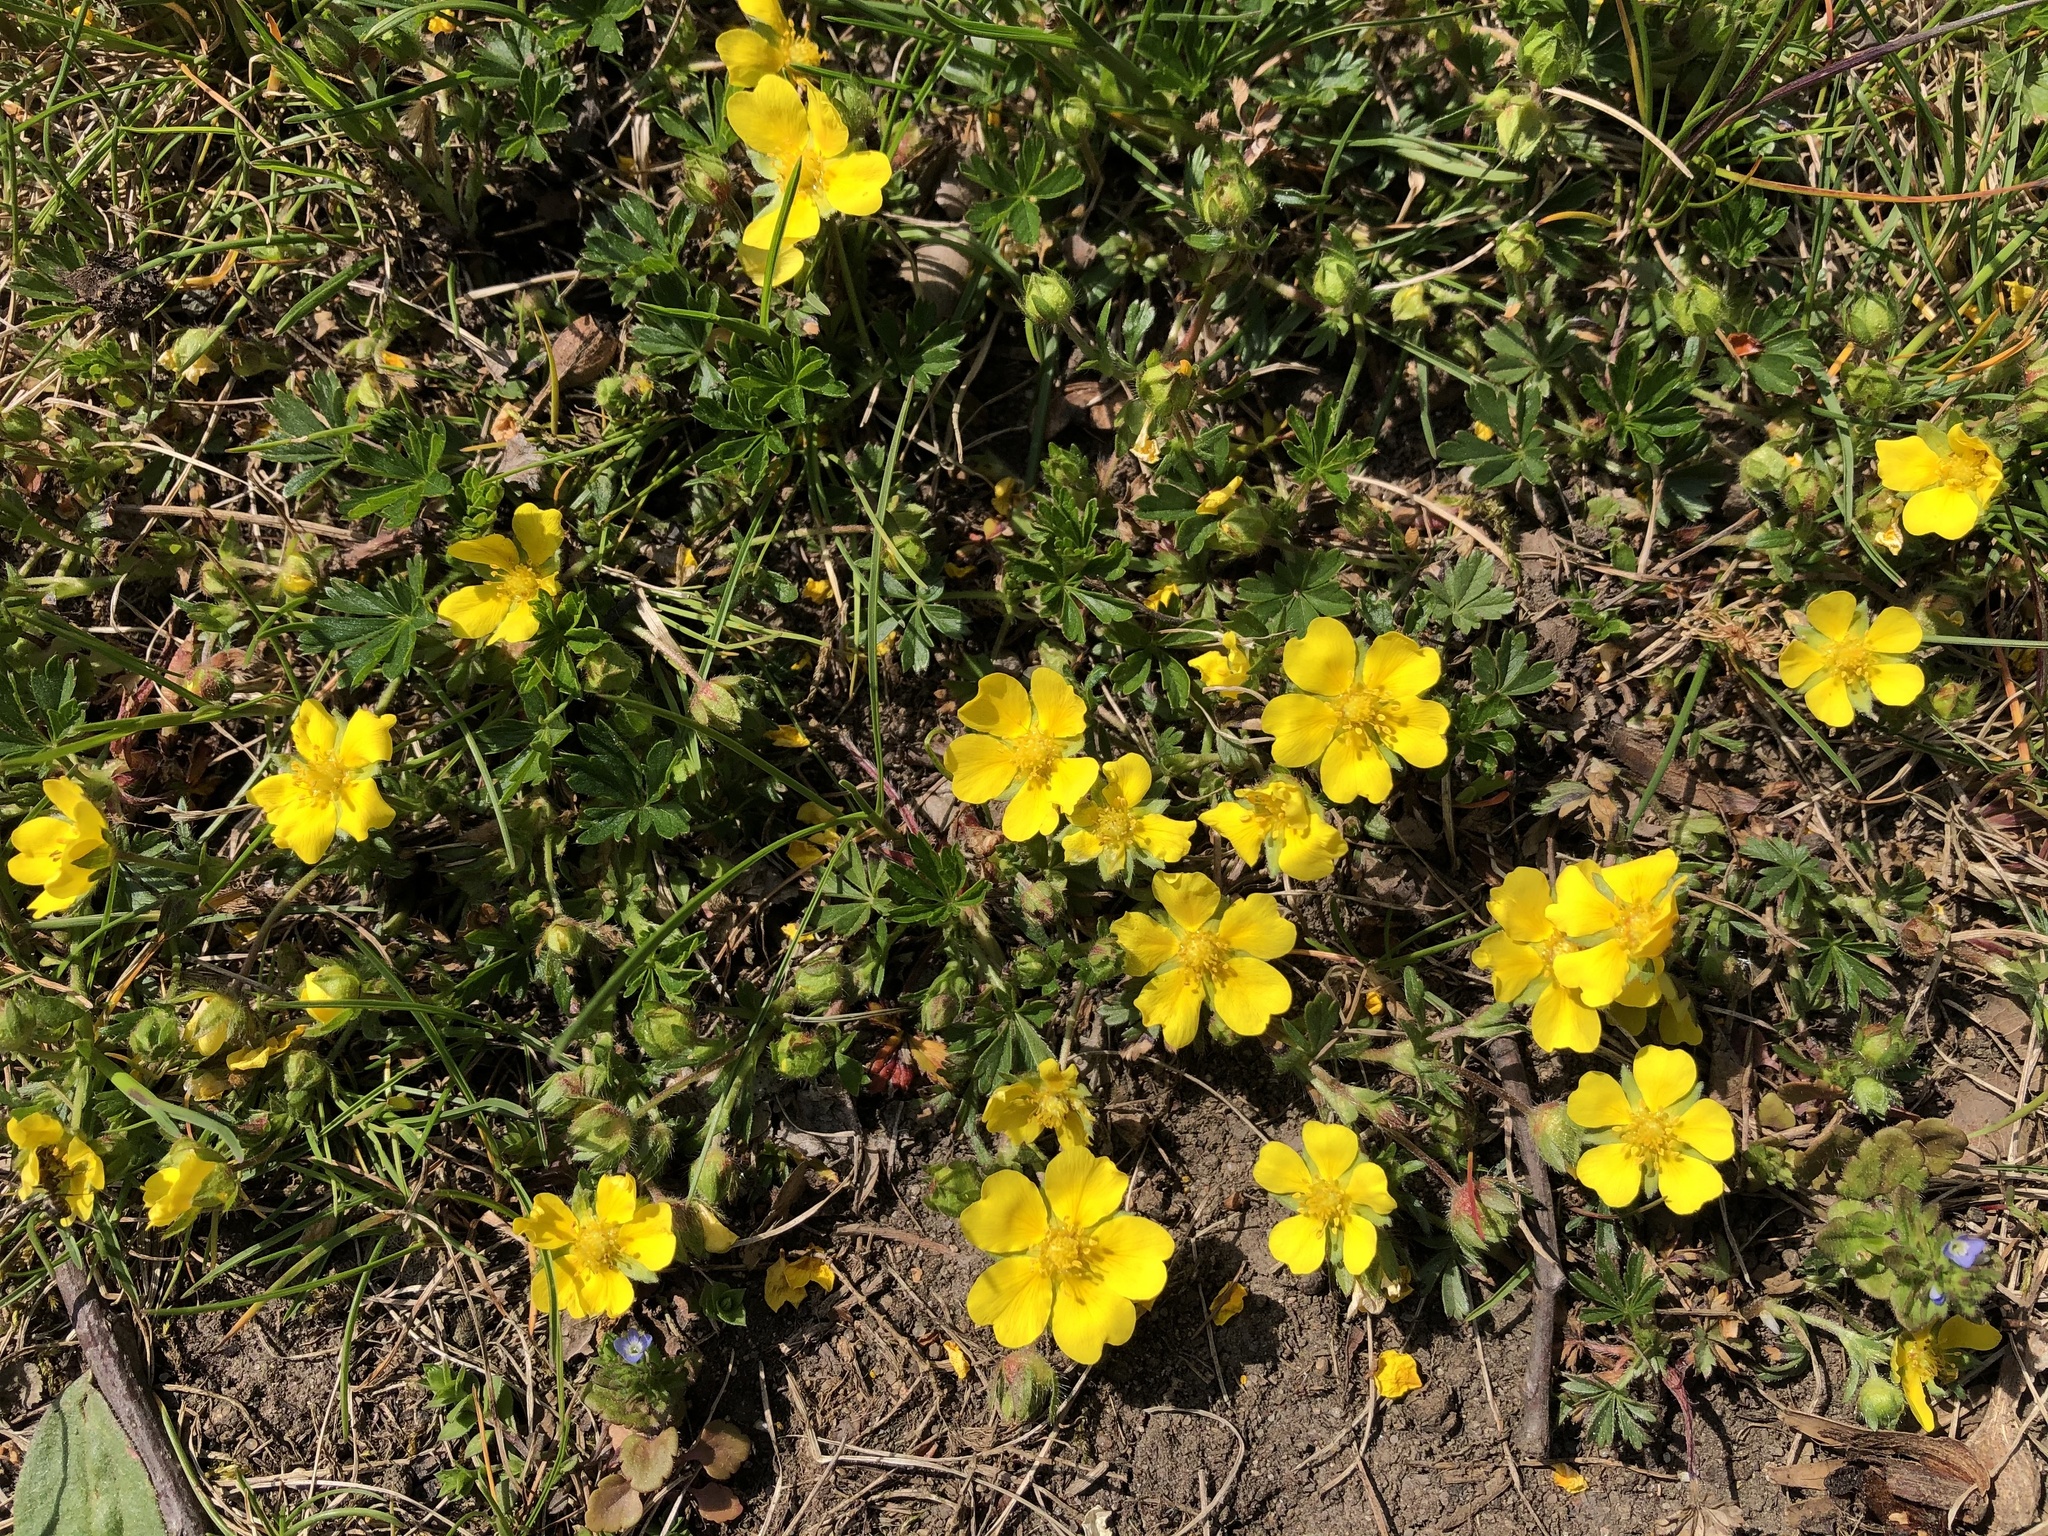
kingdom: Plantae
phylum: Tracheophyta
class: Magnoliopsida
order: Rosales
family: Rosaceae
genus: Potentilla
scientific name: Potentilla verna
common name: Spring cinquefoil
